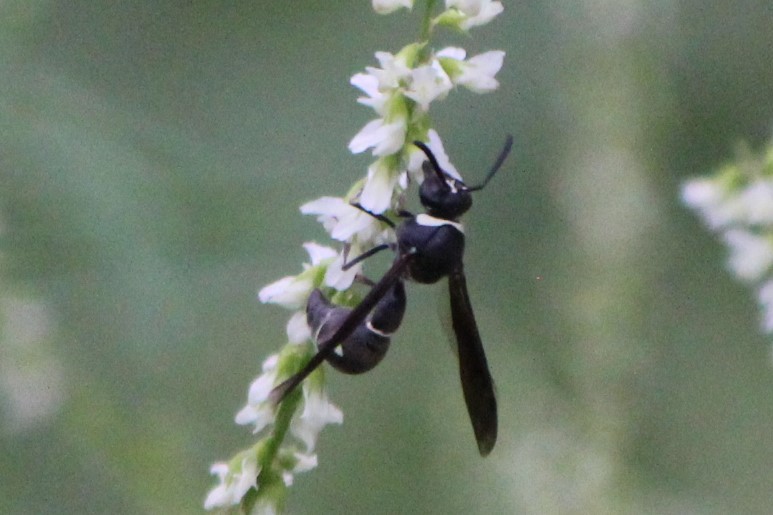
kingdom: Animalia
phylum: Arthropoda
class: Insecta
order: Hymenoptera
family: Vespidae
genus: Eumenes
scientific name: Eumenes fraternus
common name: Fraternal potter wasp
